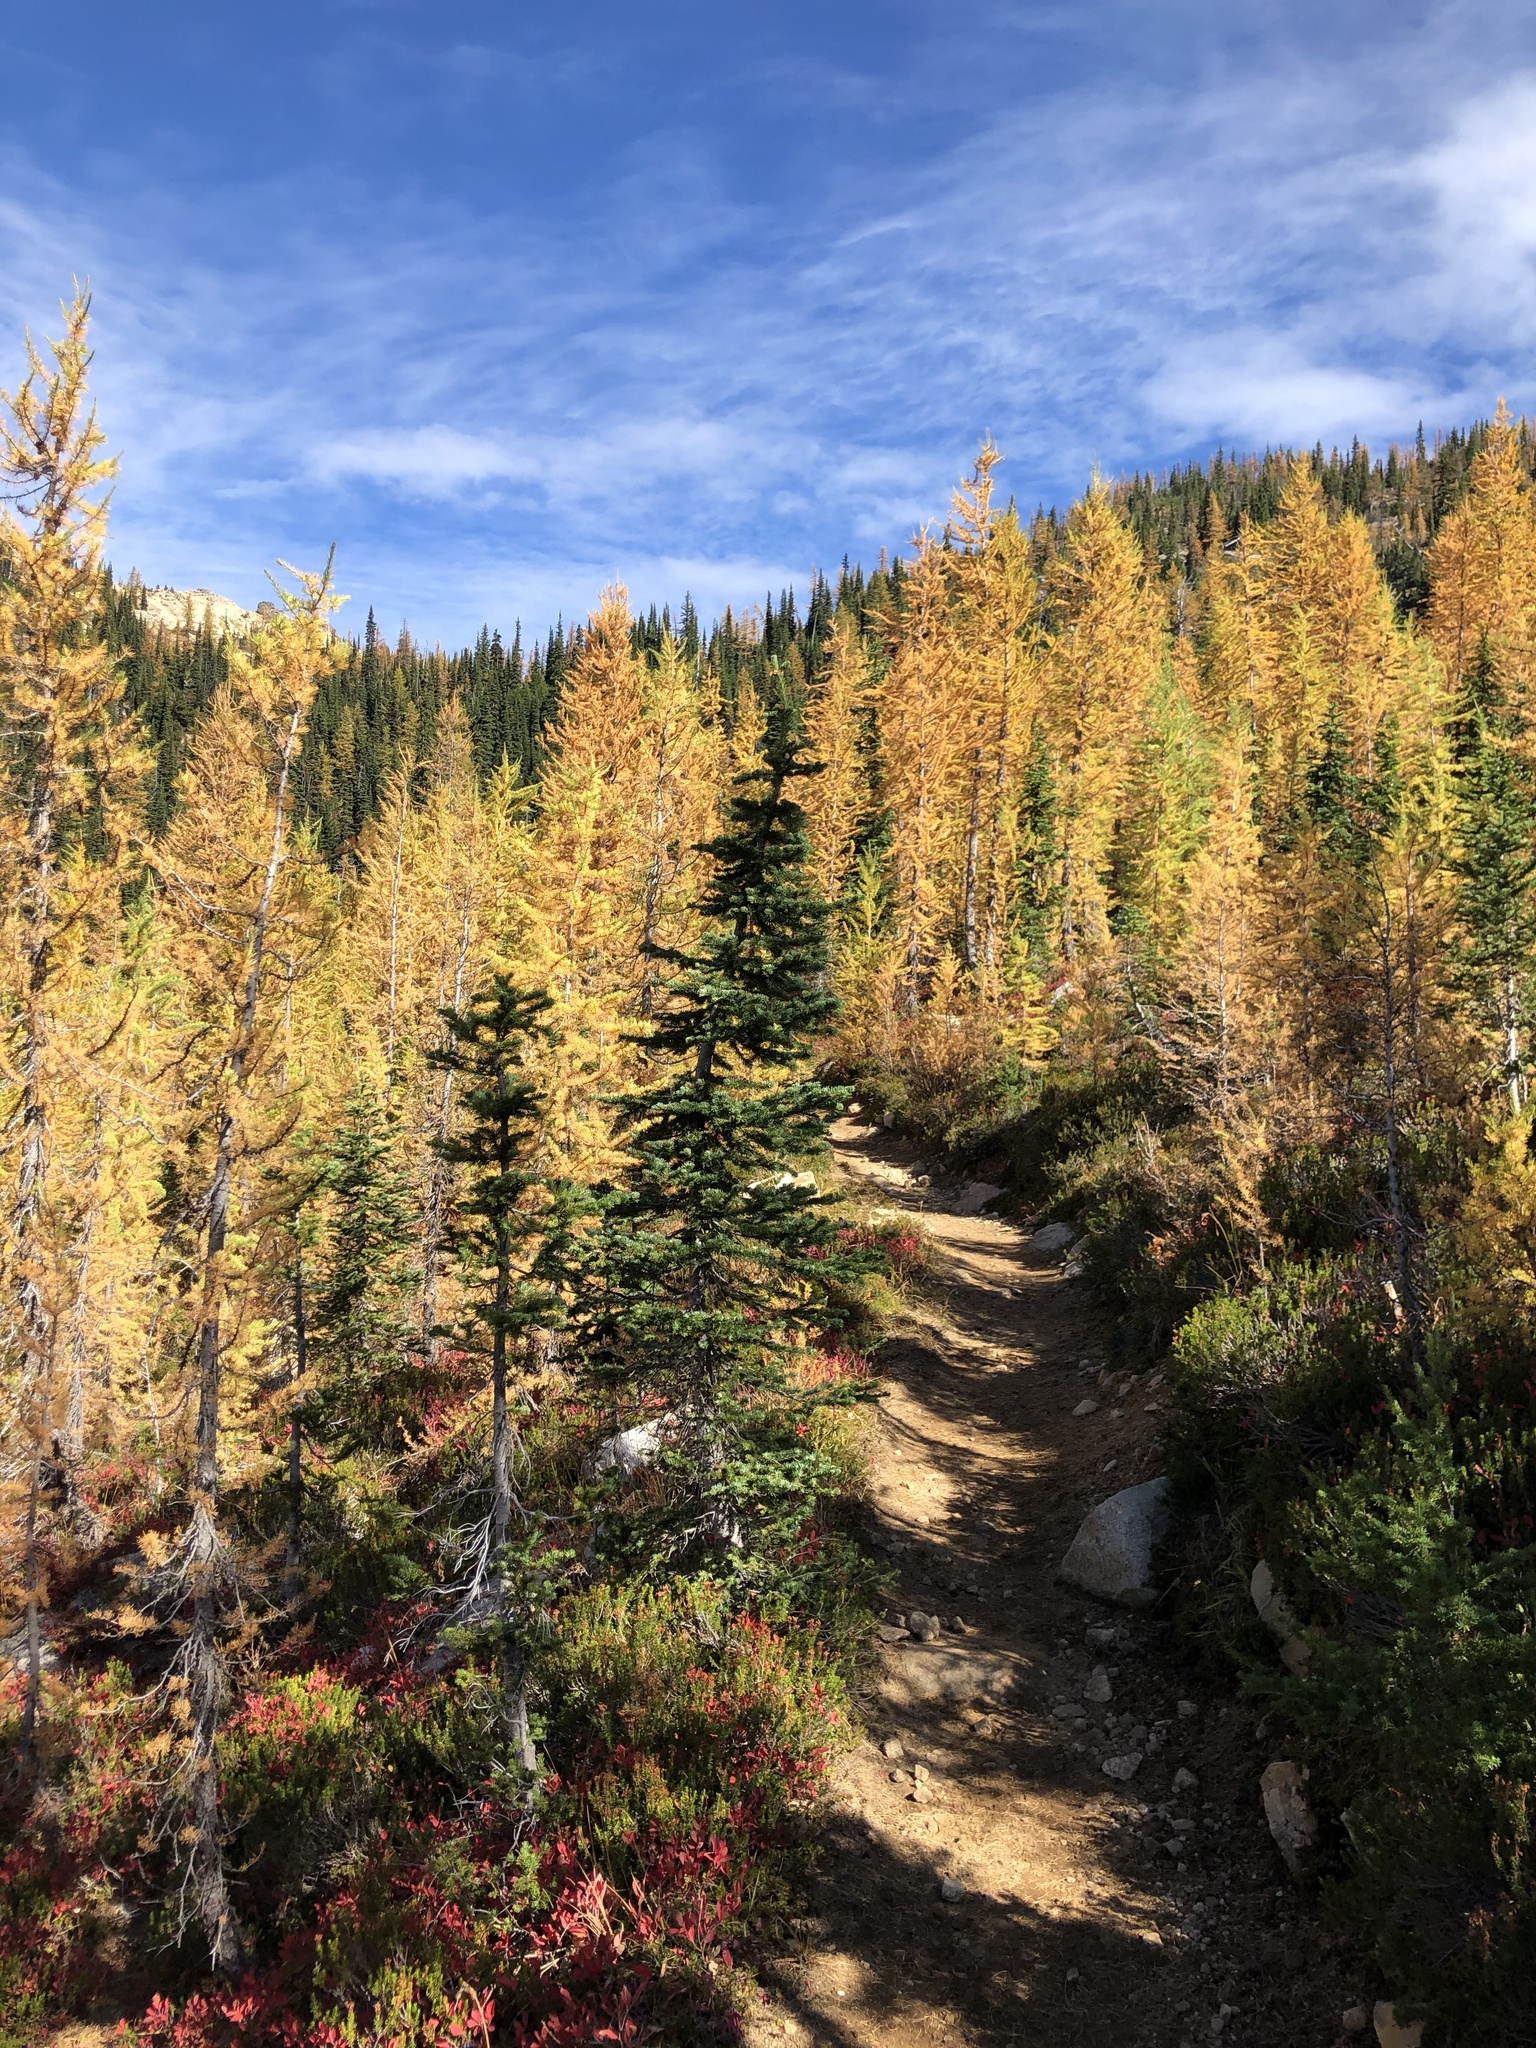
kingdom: Plantae
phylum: Tracheophyta
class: Pinopsida
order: Pinales
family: Pinaceae
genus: Abies
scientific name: Abies lasiocarpa
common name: Subalpine fir
